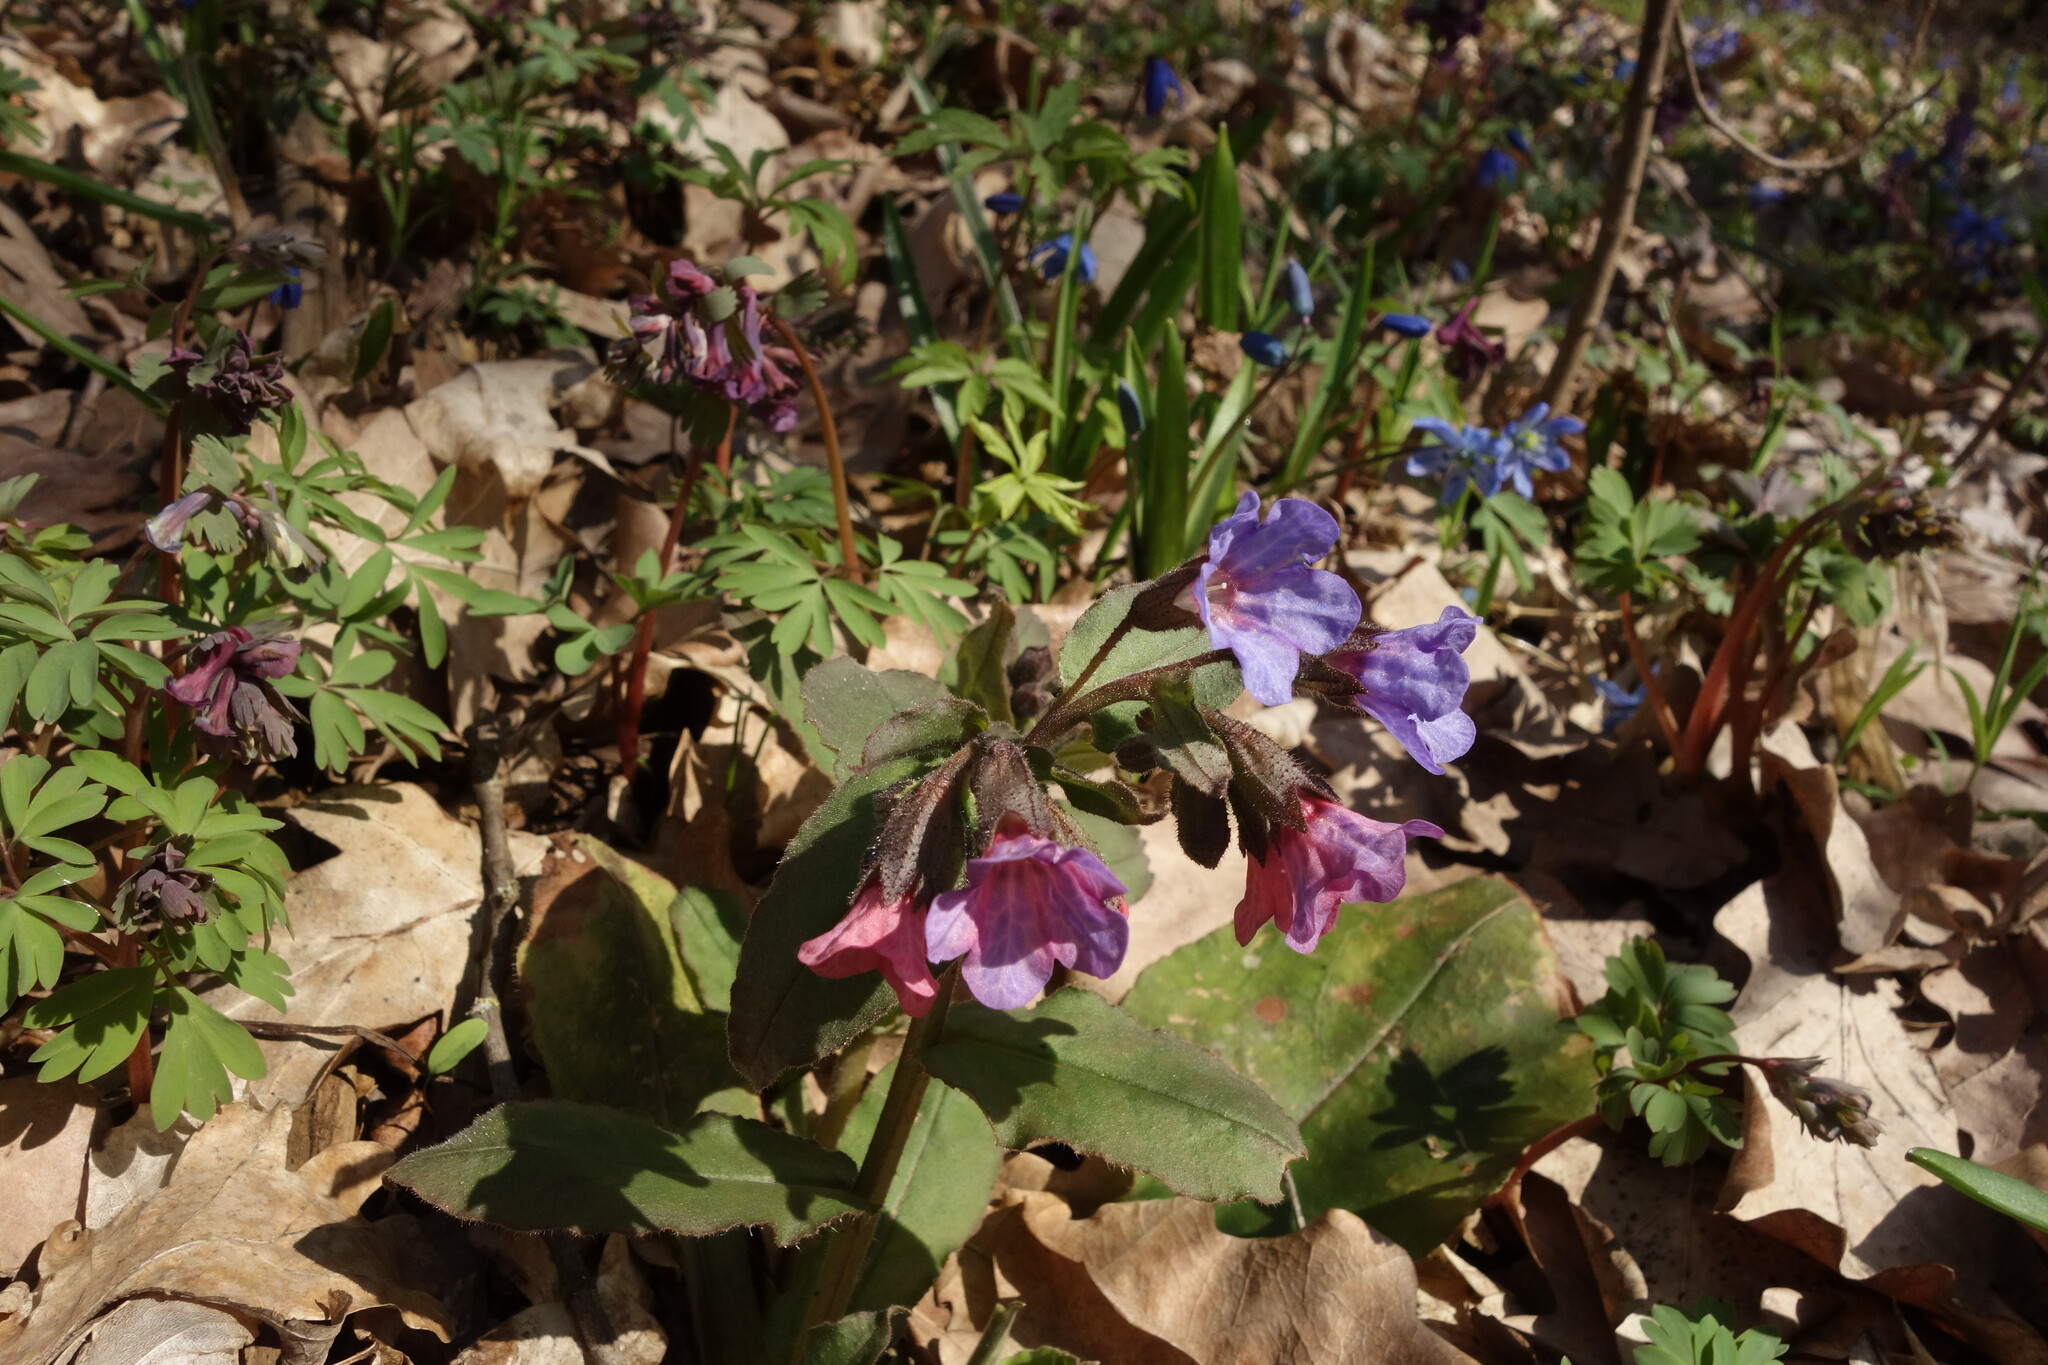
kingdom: Plantae
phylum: Tracheophyta
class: Magnoliopsida
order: Boraginales
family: Boraginaceae
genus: Pulmonaria
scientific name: Pulmonaria obscura
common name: Suffolk lungwort
